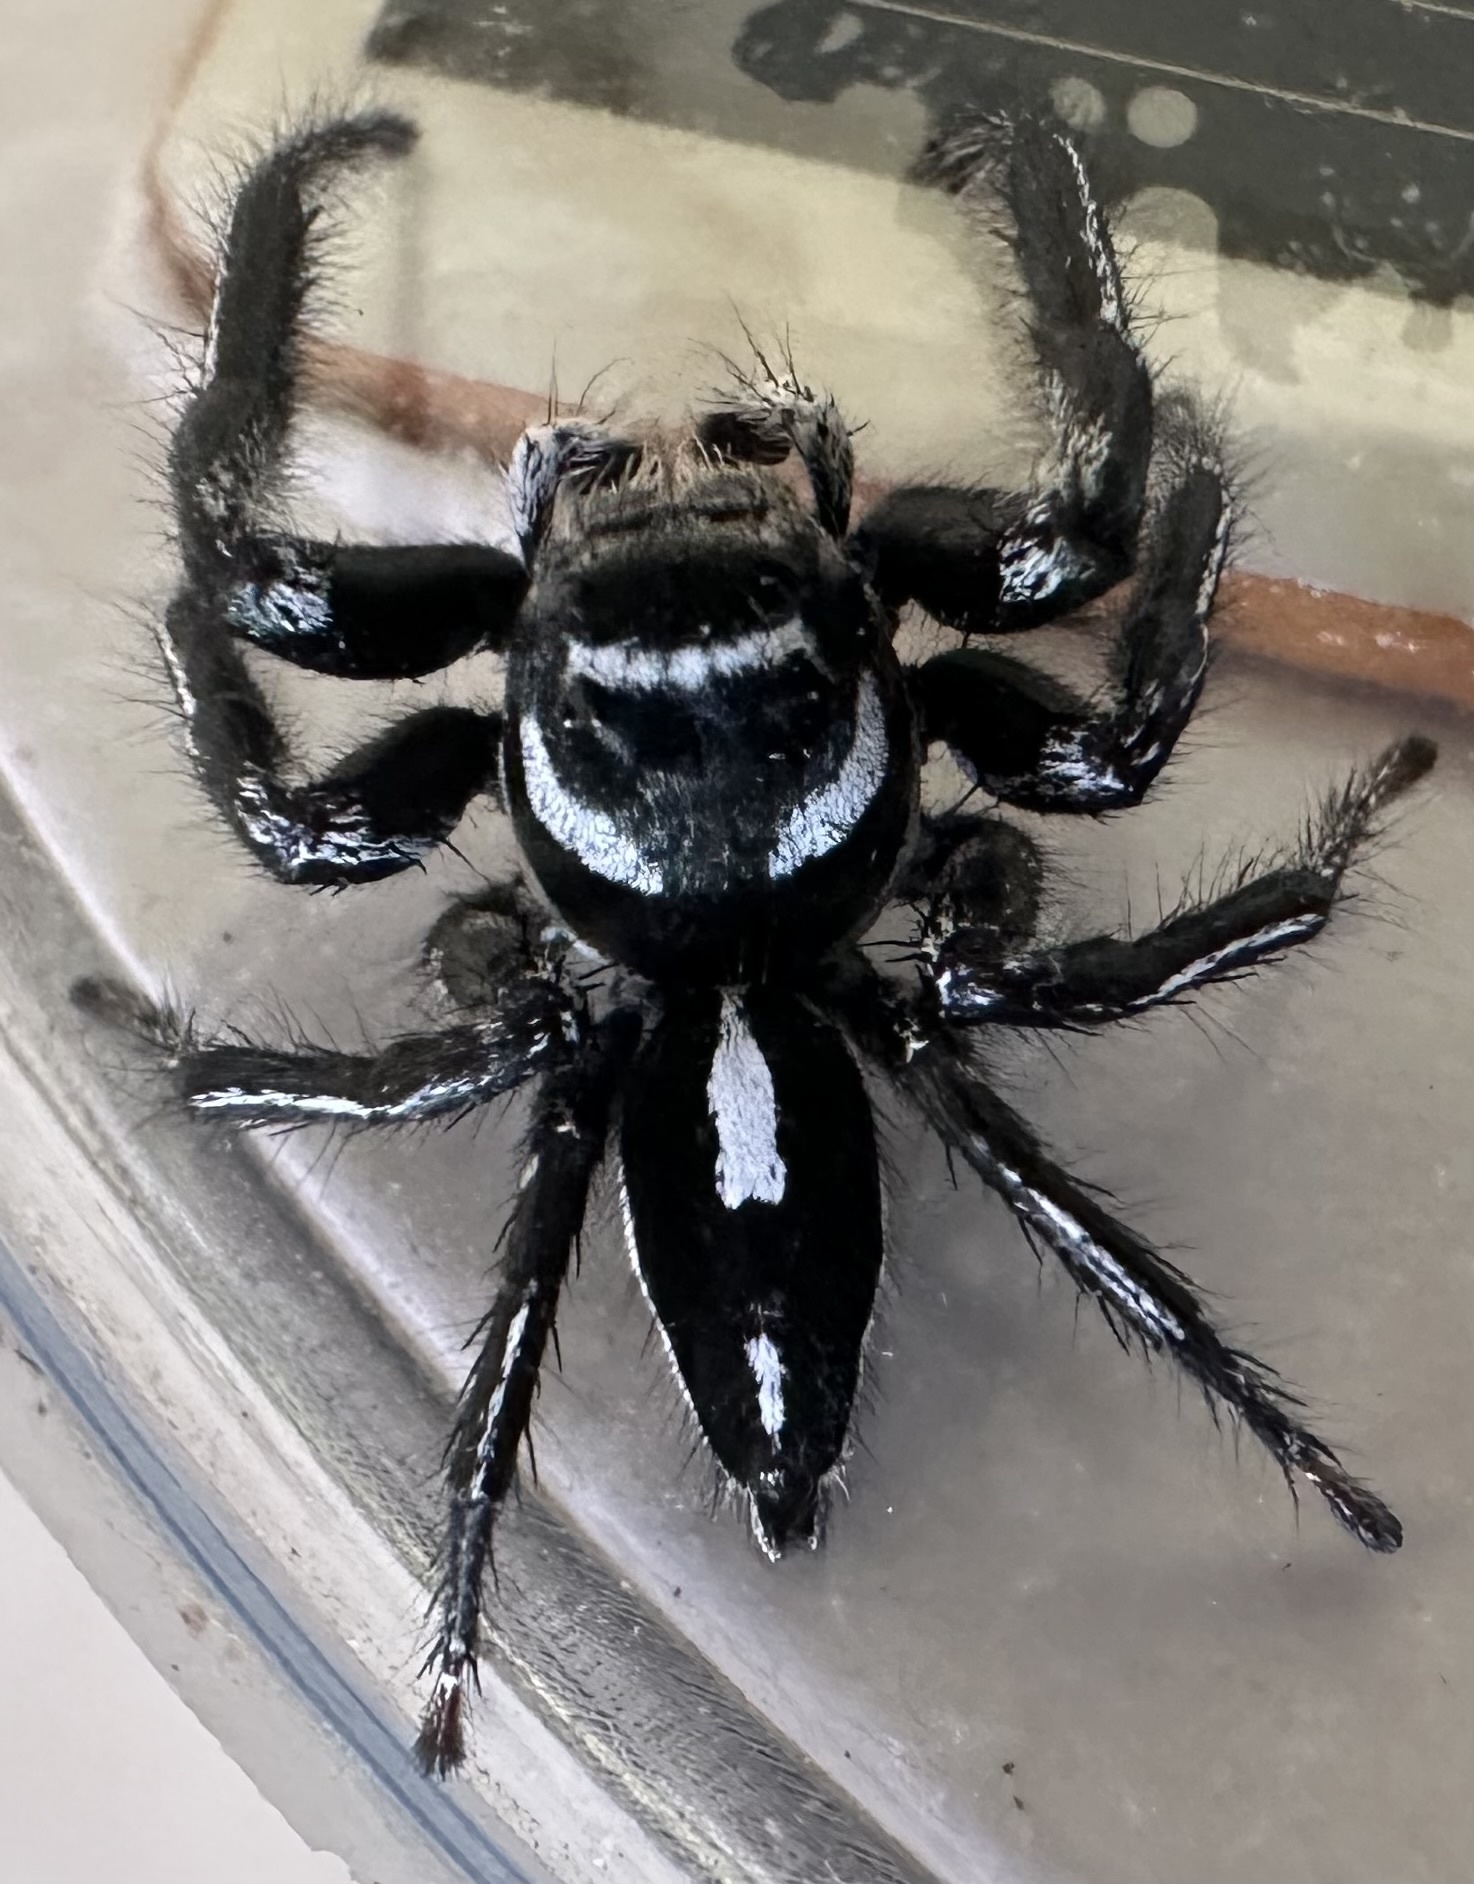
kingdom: Animalia
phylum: Arthropoda
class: Arachnida
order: Araneae
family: Salticidae
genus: Hyllus
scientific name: Hyllus argyrotoxus
